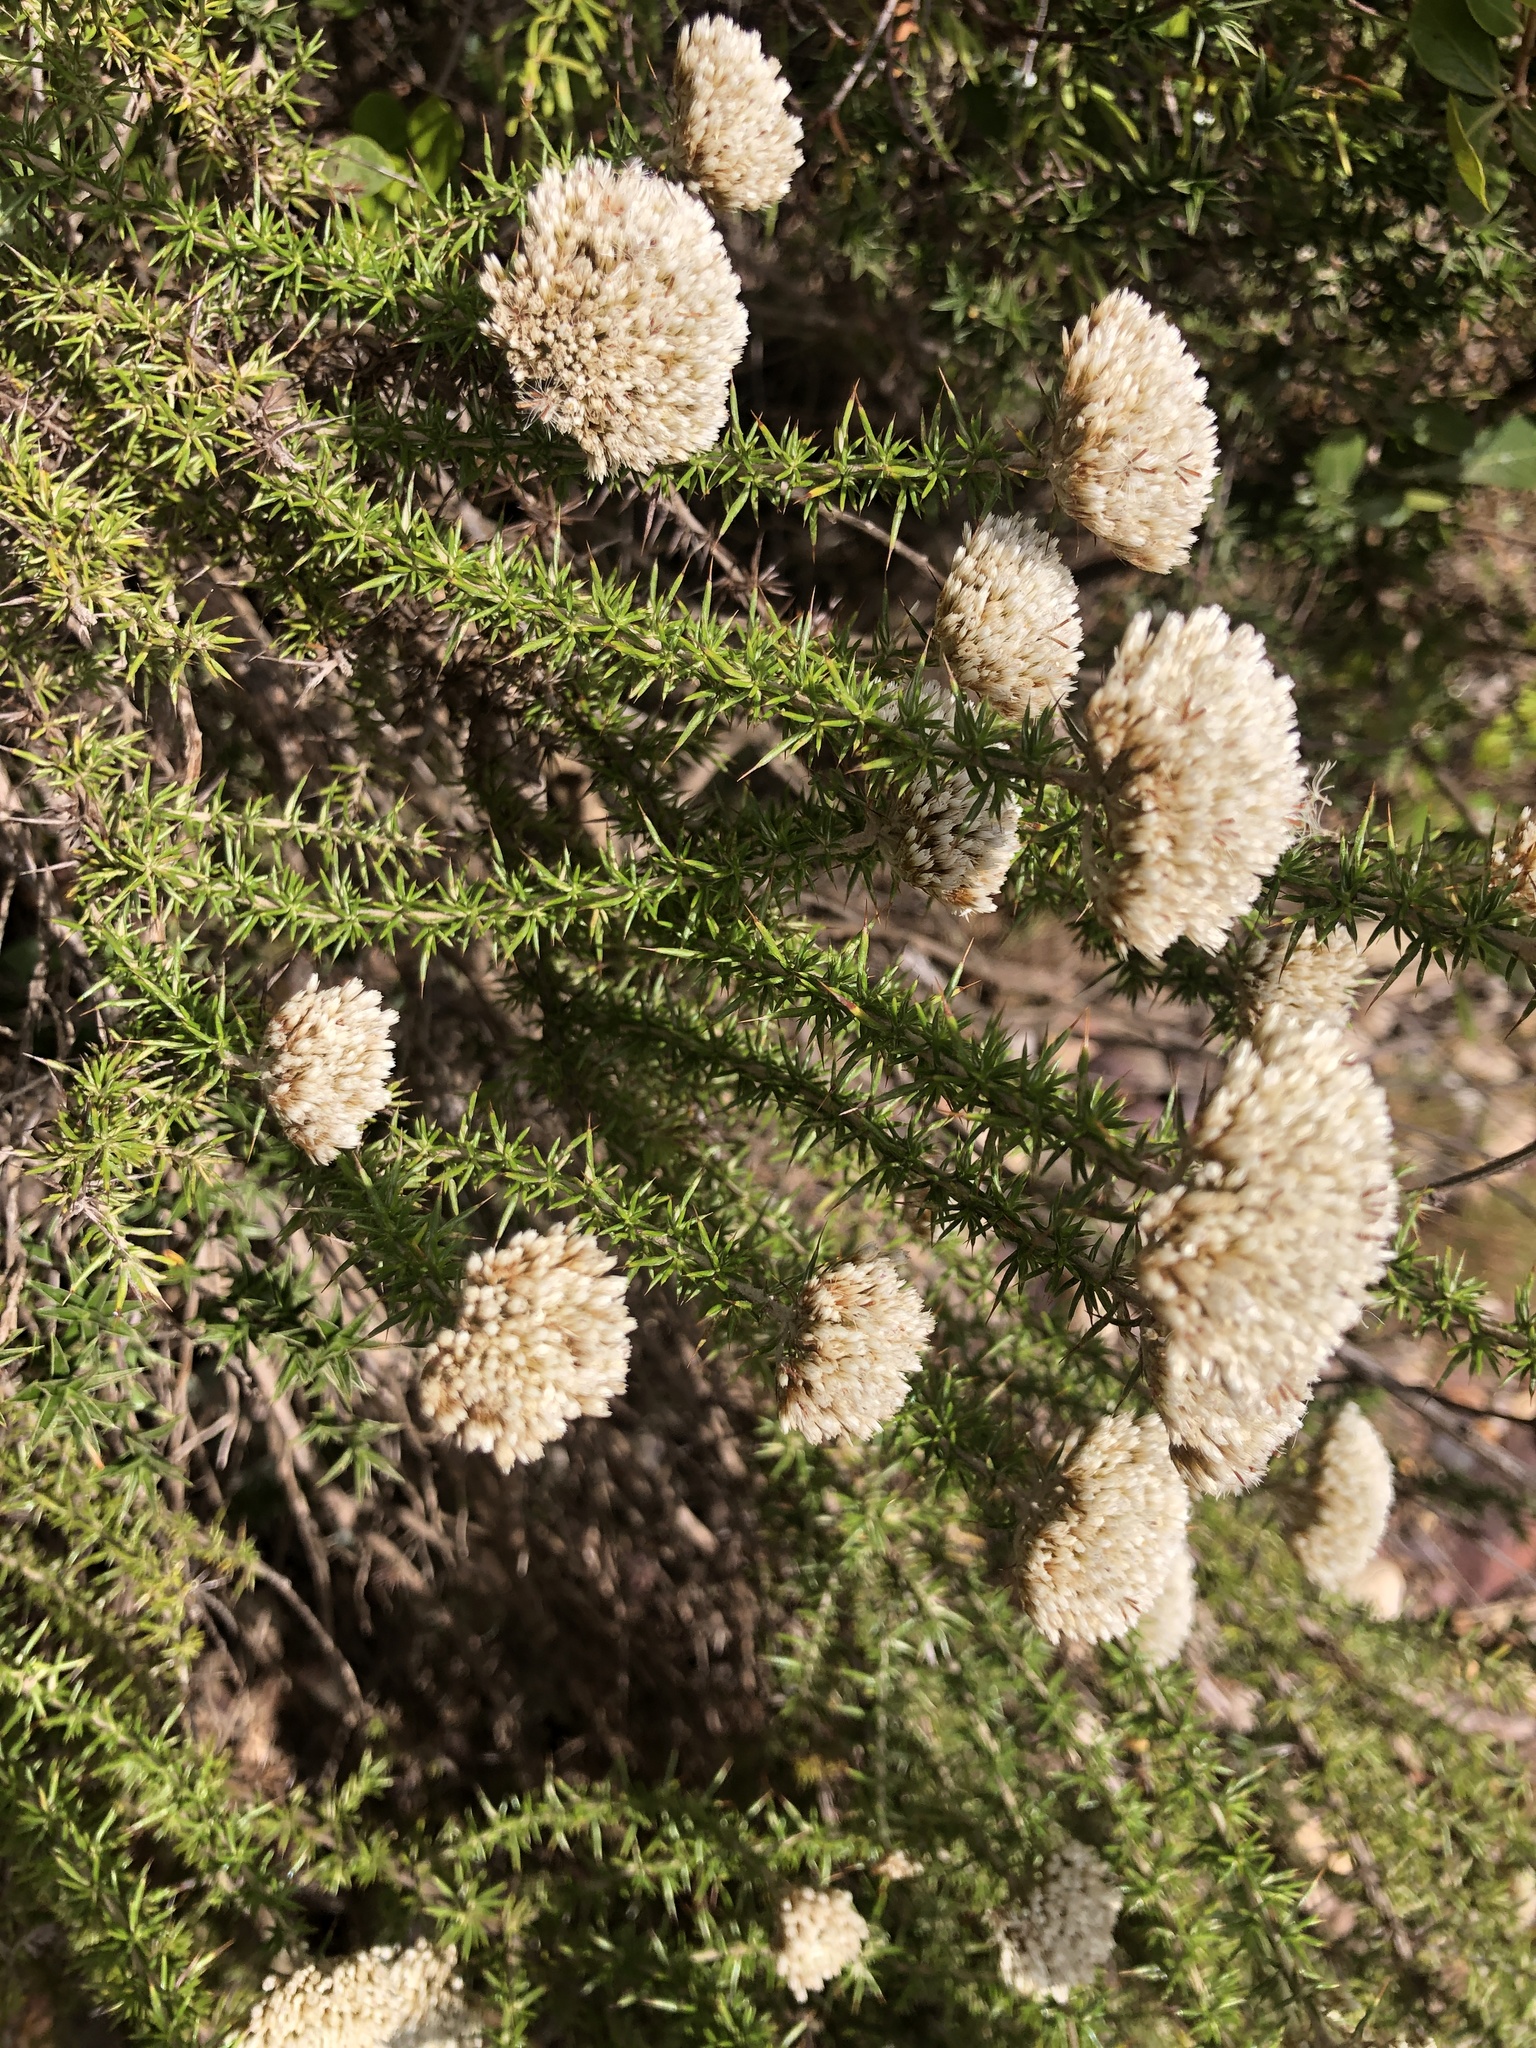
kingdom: Plantae
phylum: Tracheophyta
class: Magnoliopsida
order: Asterales
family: Asteraceae
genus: Metalasia
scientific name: Metalasia acuta
